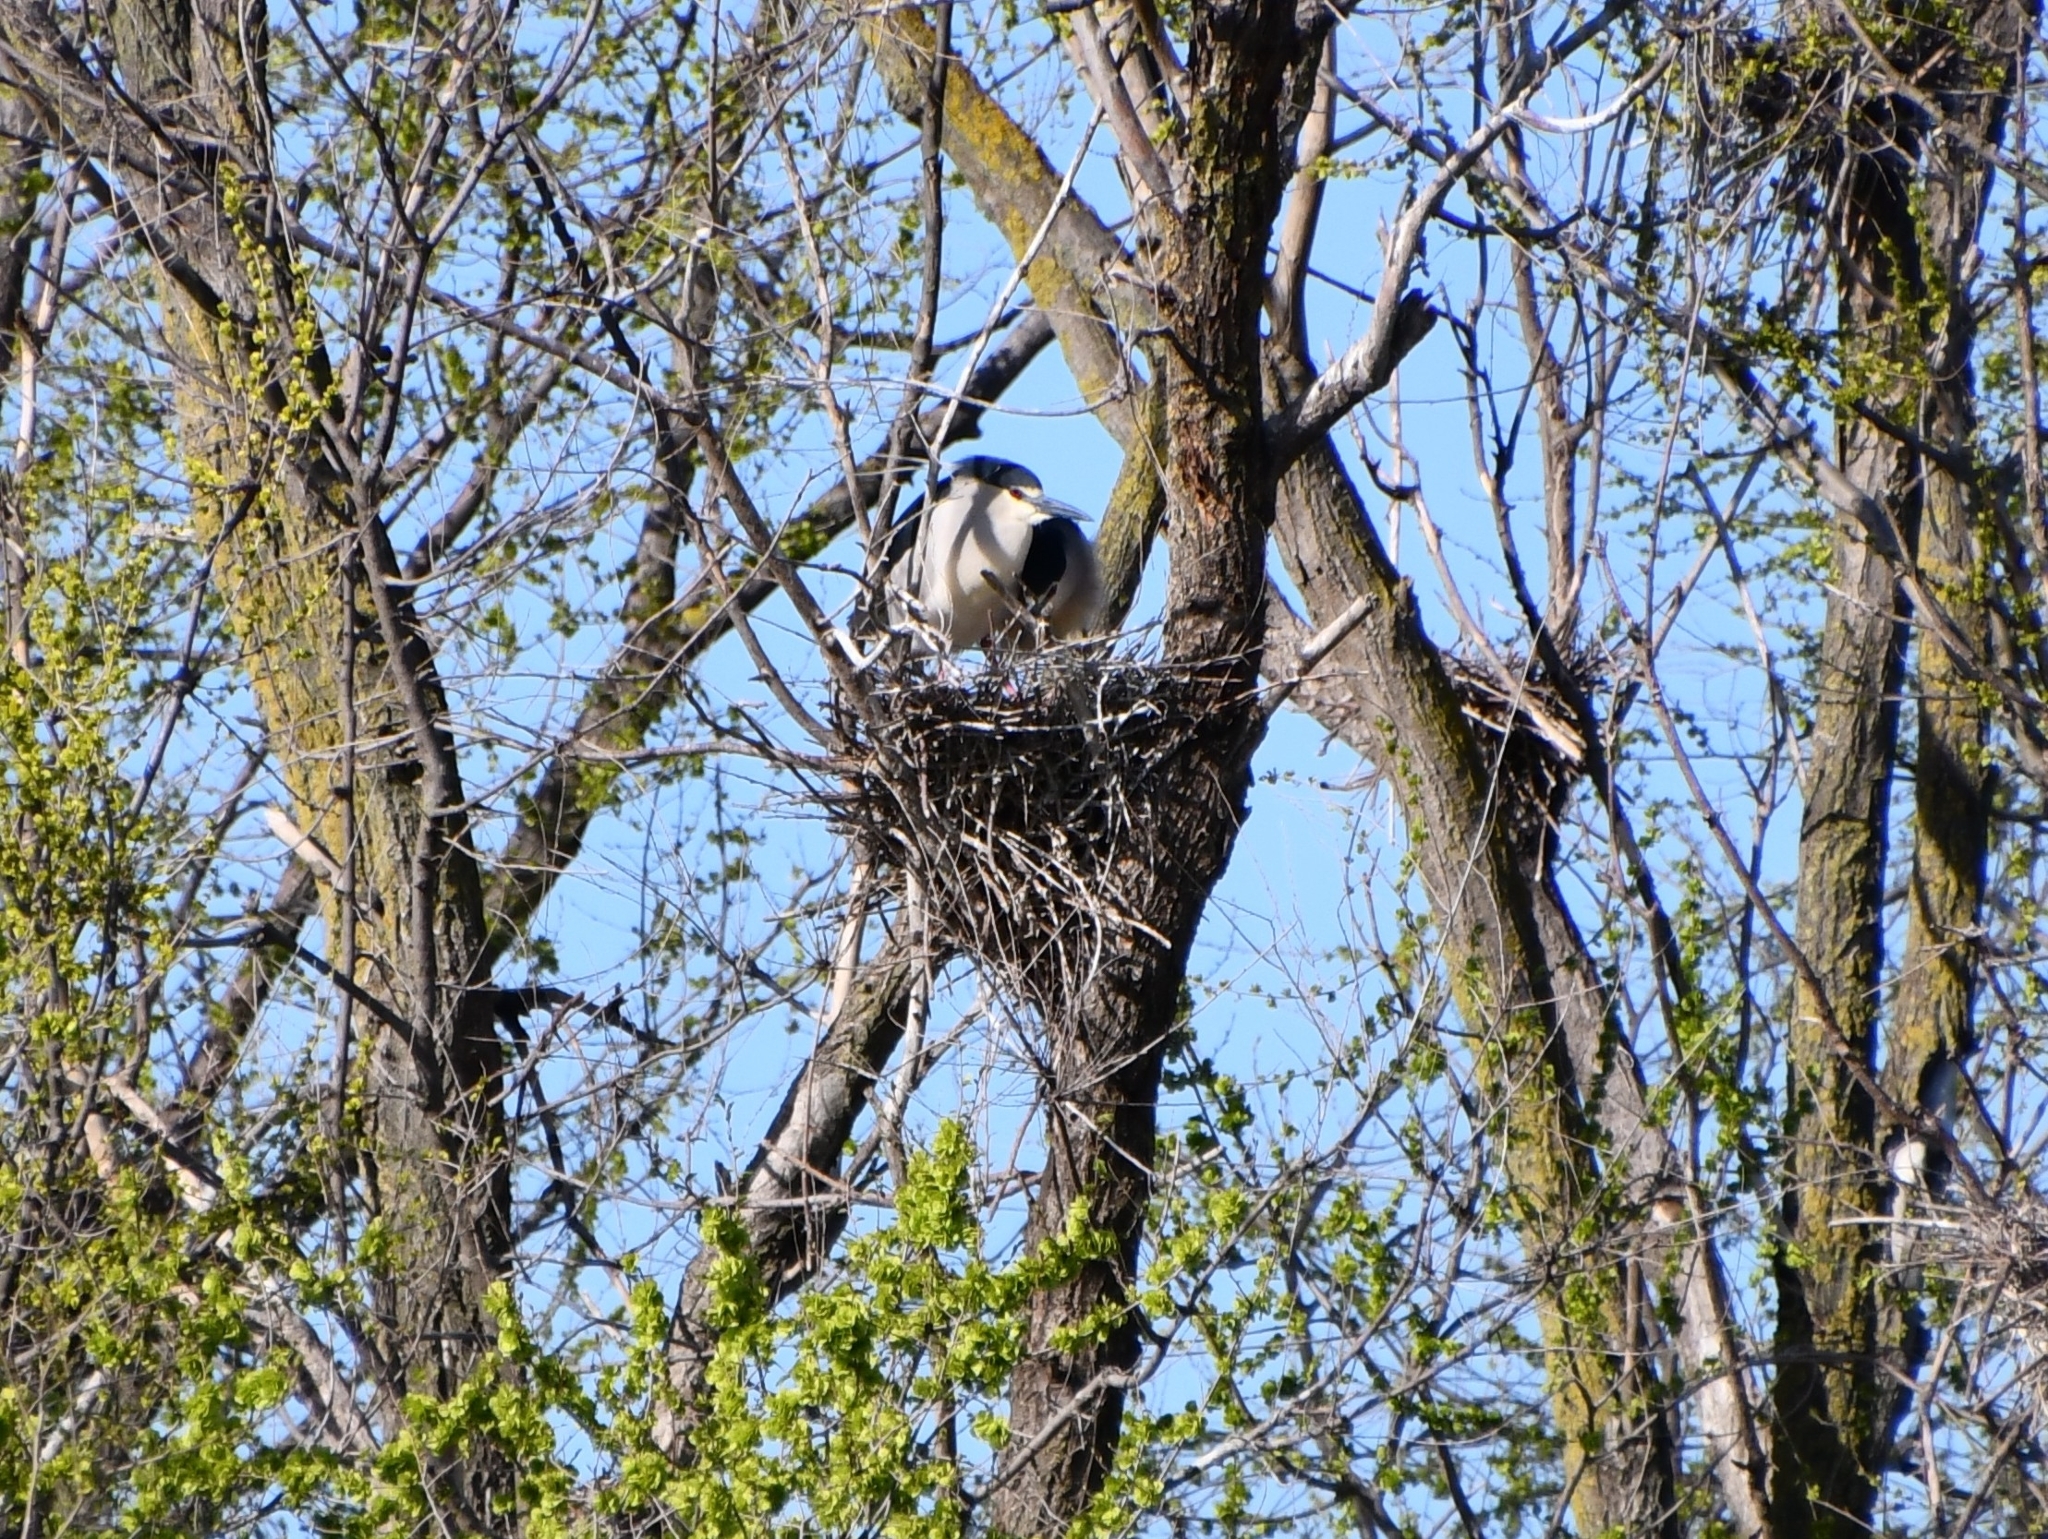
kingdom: Animalia
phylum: Chordata
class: Aves
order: Pelecaniformes
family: Ardeidae
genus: Nycticorax
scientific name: Nycticorax nycticorax
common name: Black-crowned night heron
